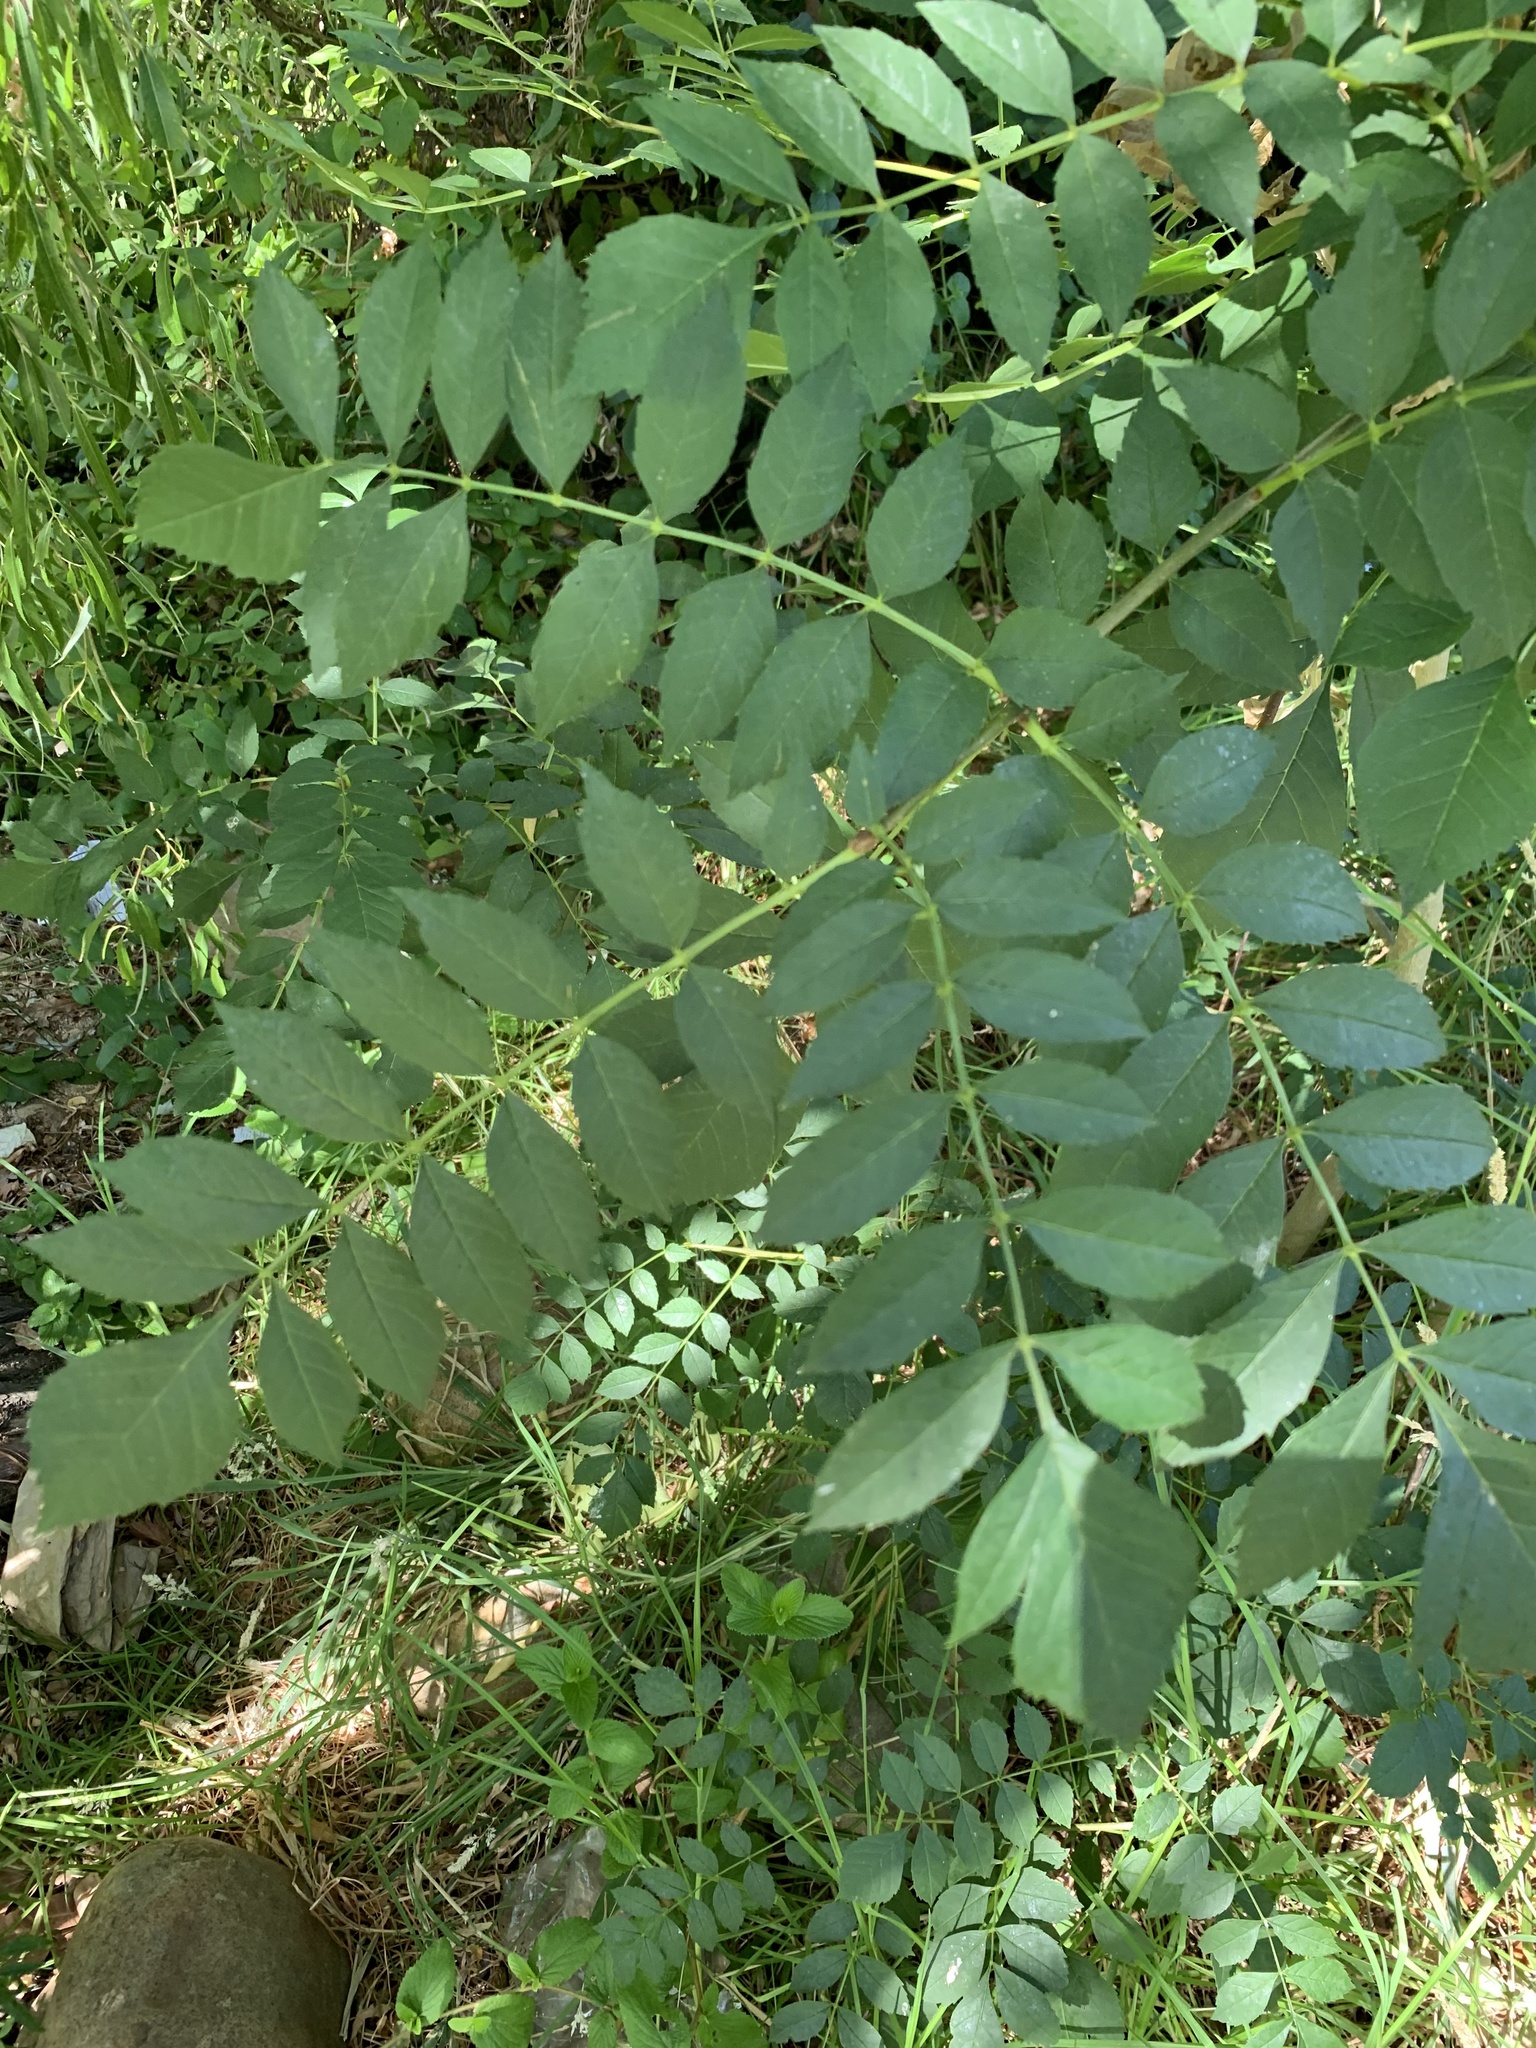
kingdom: Plantae
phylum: Tracheophyta
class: Magnoliopsida
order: Fabales
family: Fabaceae
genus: Robinia
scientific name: Robinia pseudoacacia
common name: Black locust
